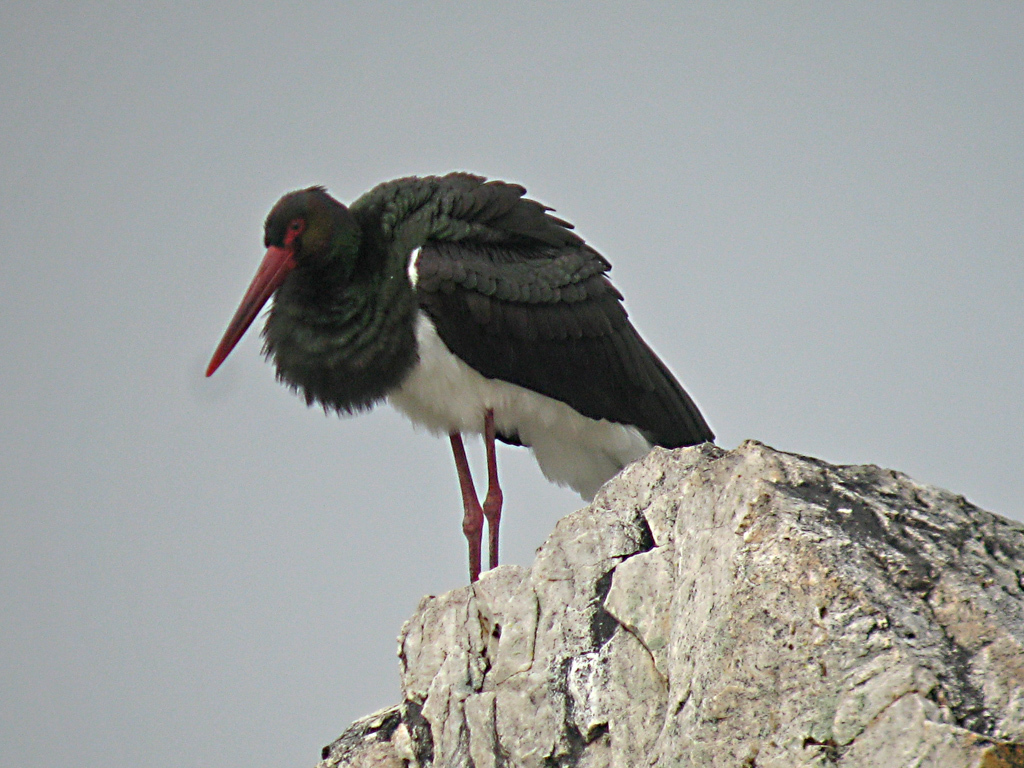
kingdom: Animalia
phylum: Chordata
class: Aves
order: Ciconiiformes
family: Ciconiidae
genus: Ciconia
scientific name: Ciconia nigra
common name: Black stork
